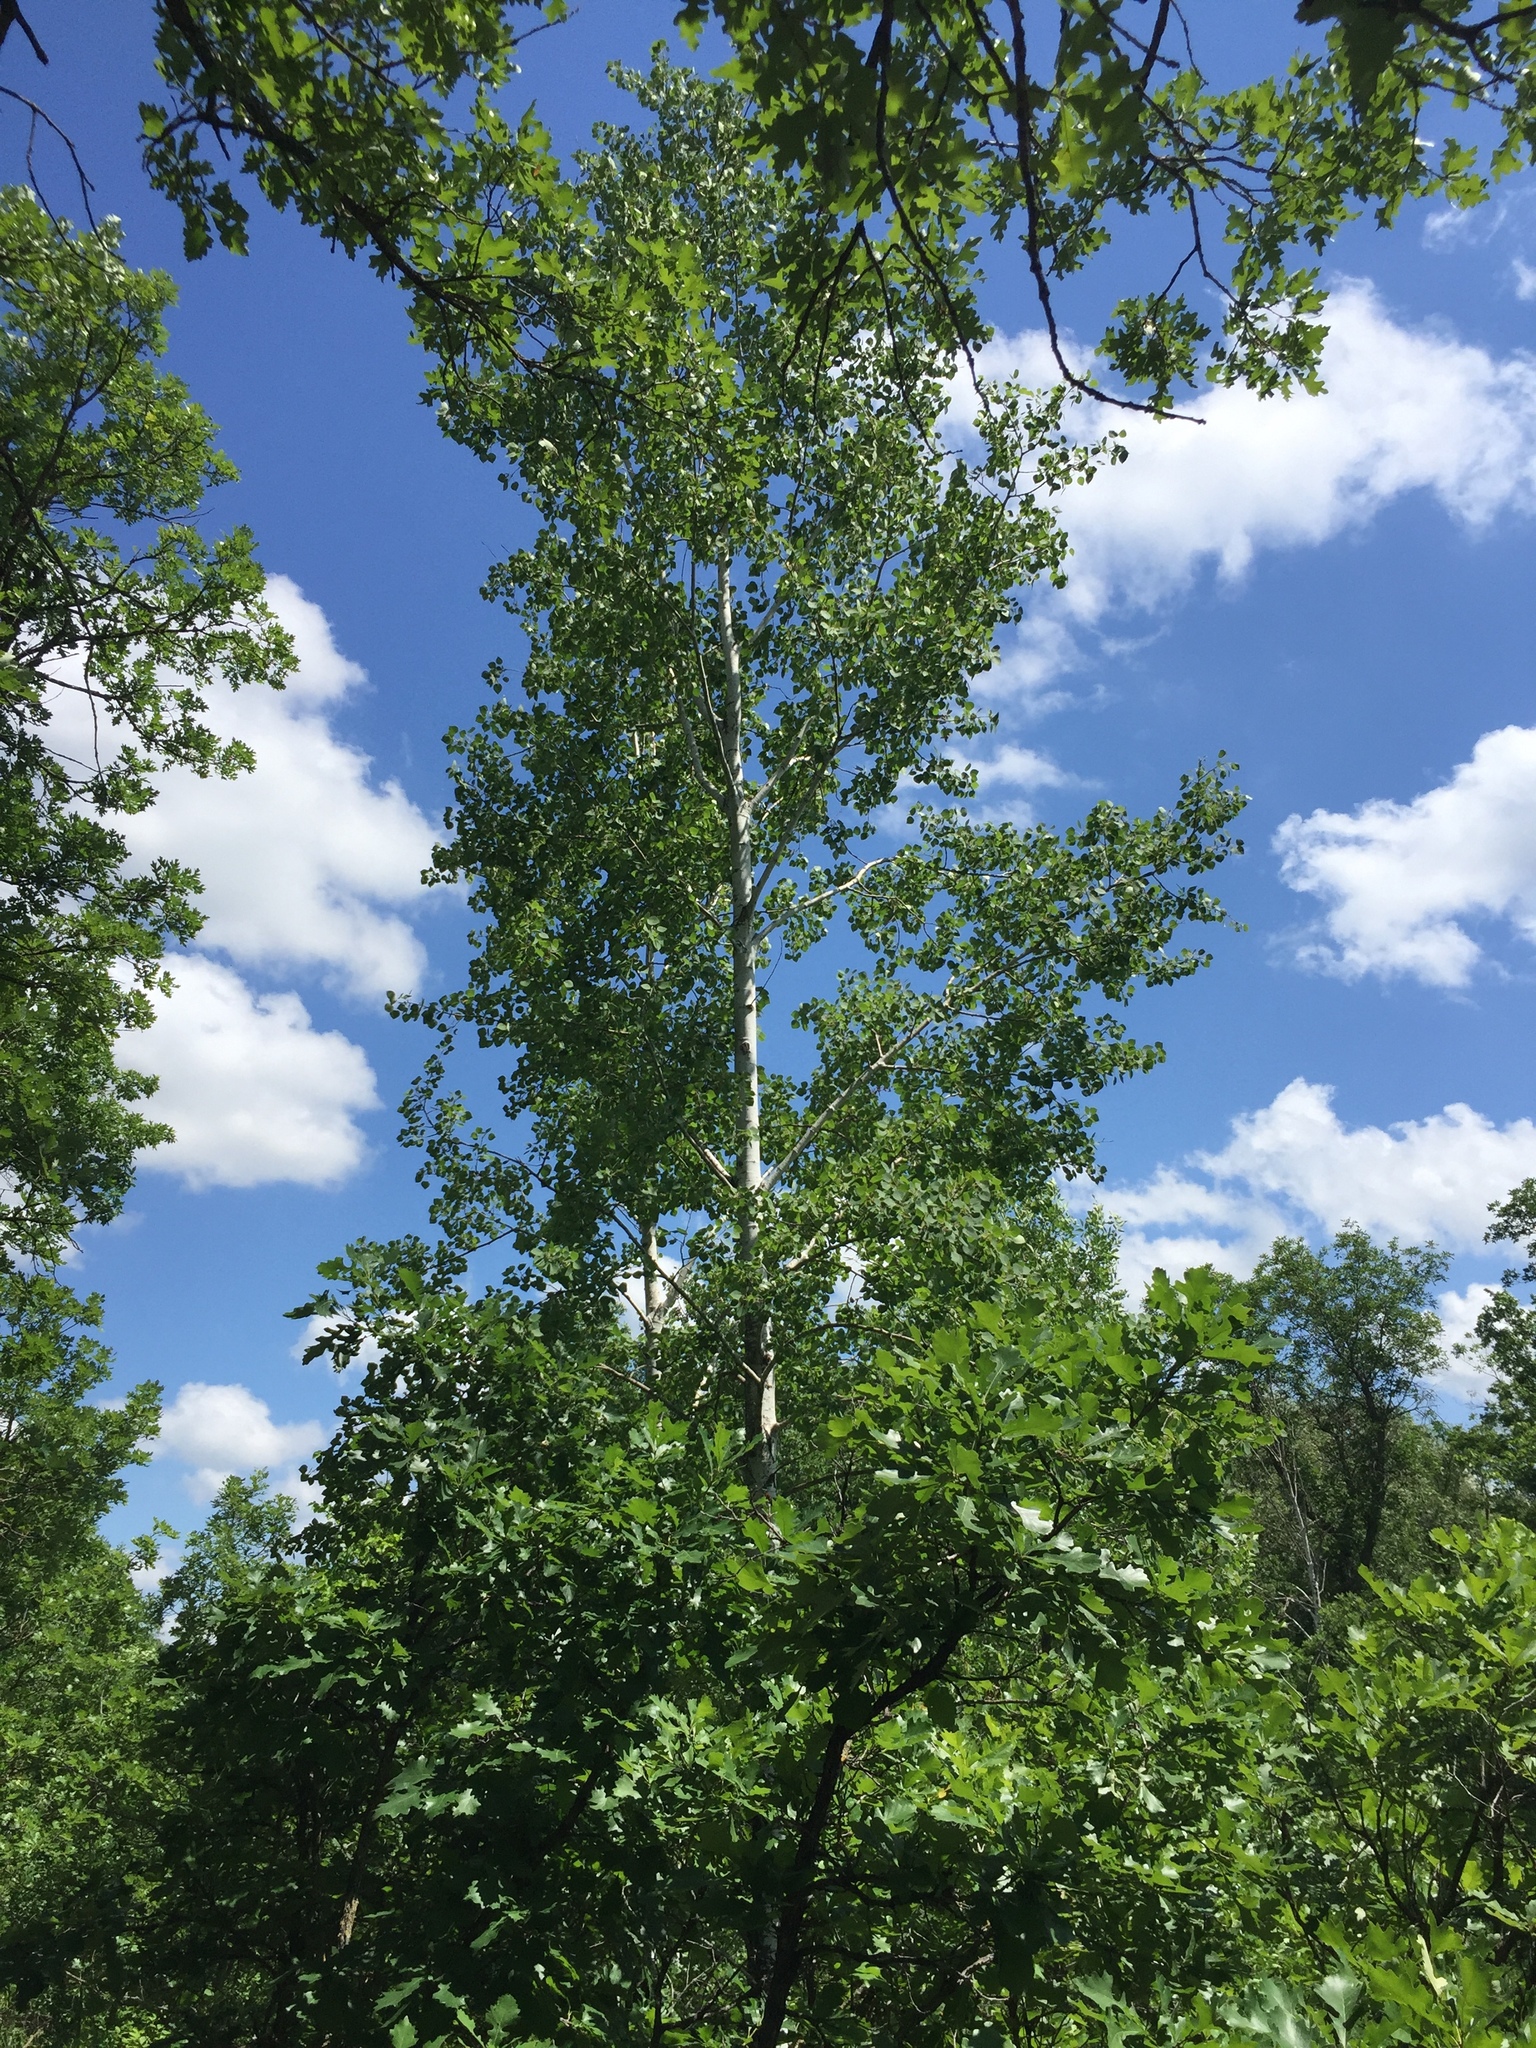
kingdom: Plantae
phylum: Tracheophyta
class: Magnoliopsida
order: Malpighiales
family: Salicaceae
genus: Populus
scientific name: Populus tremuloides
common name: Quaking aspen
